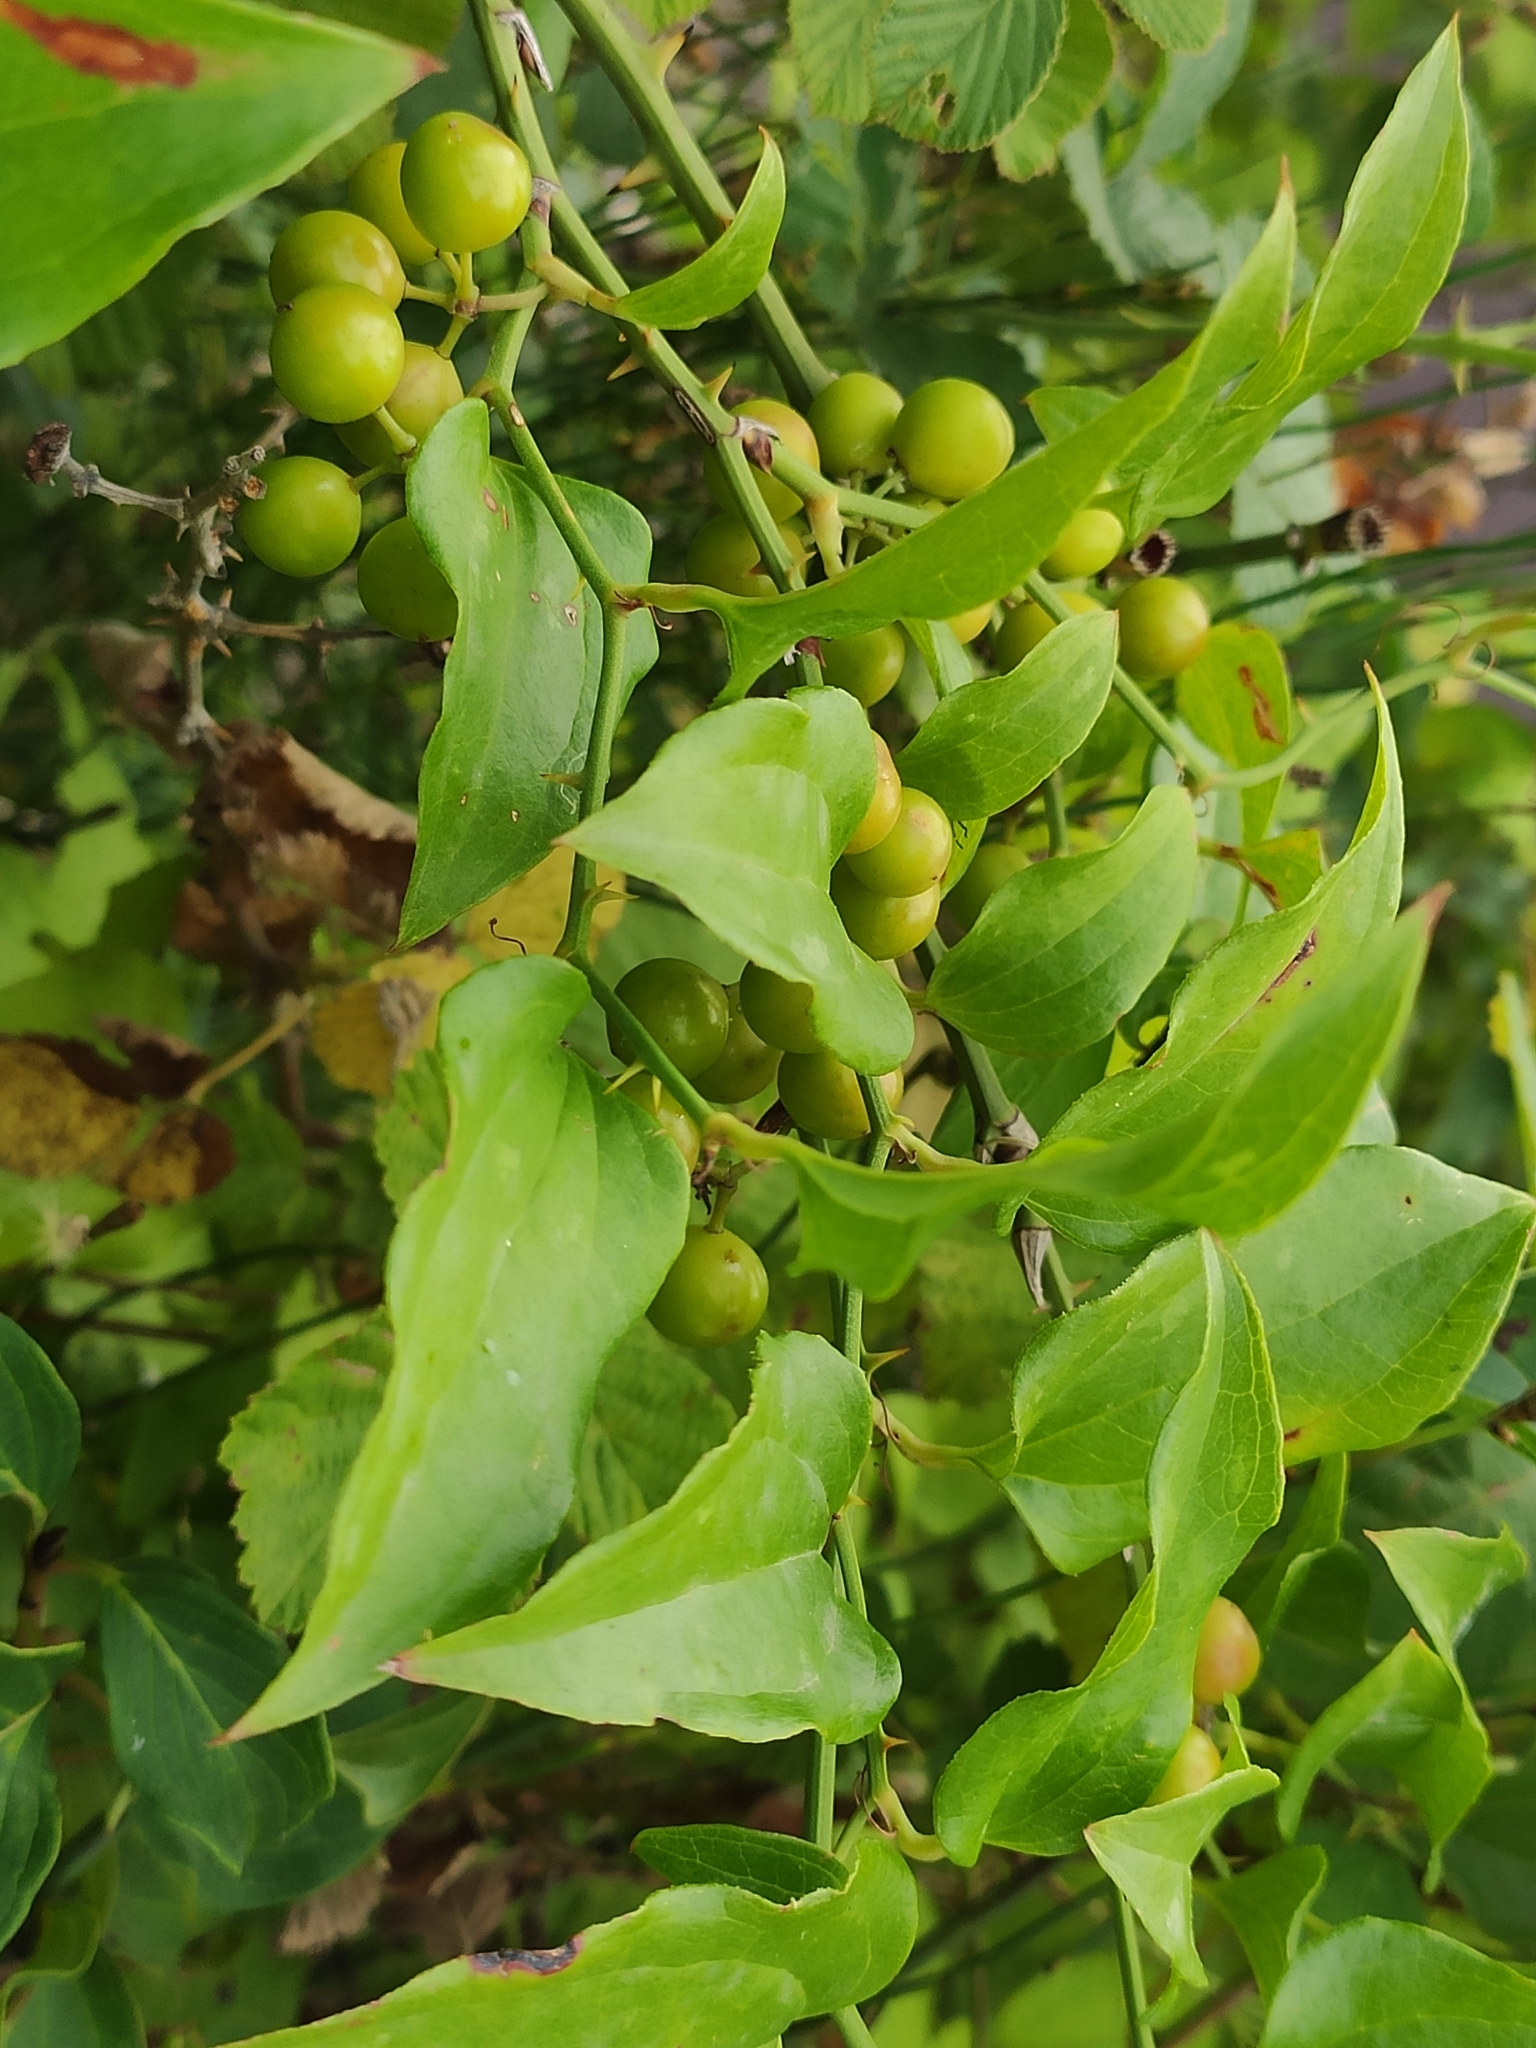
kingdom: Plantae
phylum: Tracheophyta
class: Liliopsida
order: Liliales
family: Smilacaceae
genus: Smilax
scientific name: Smilax excelsa
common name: Larger smilax
